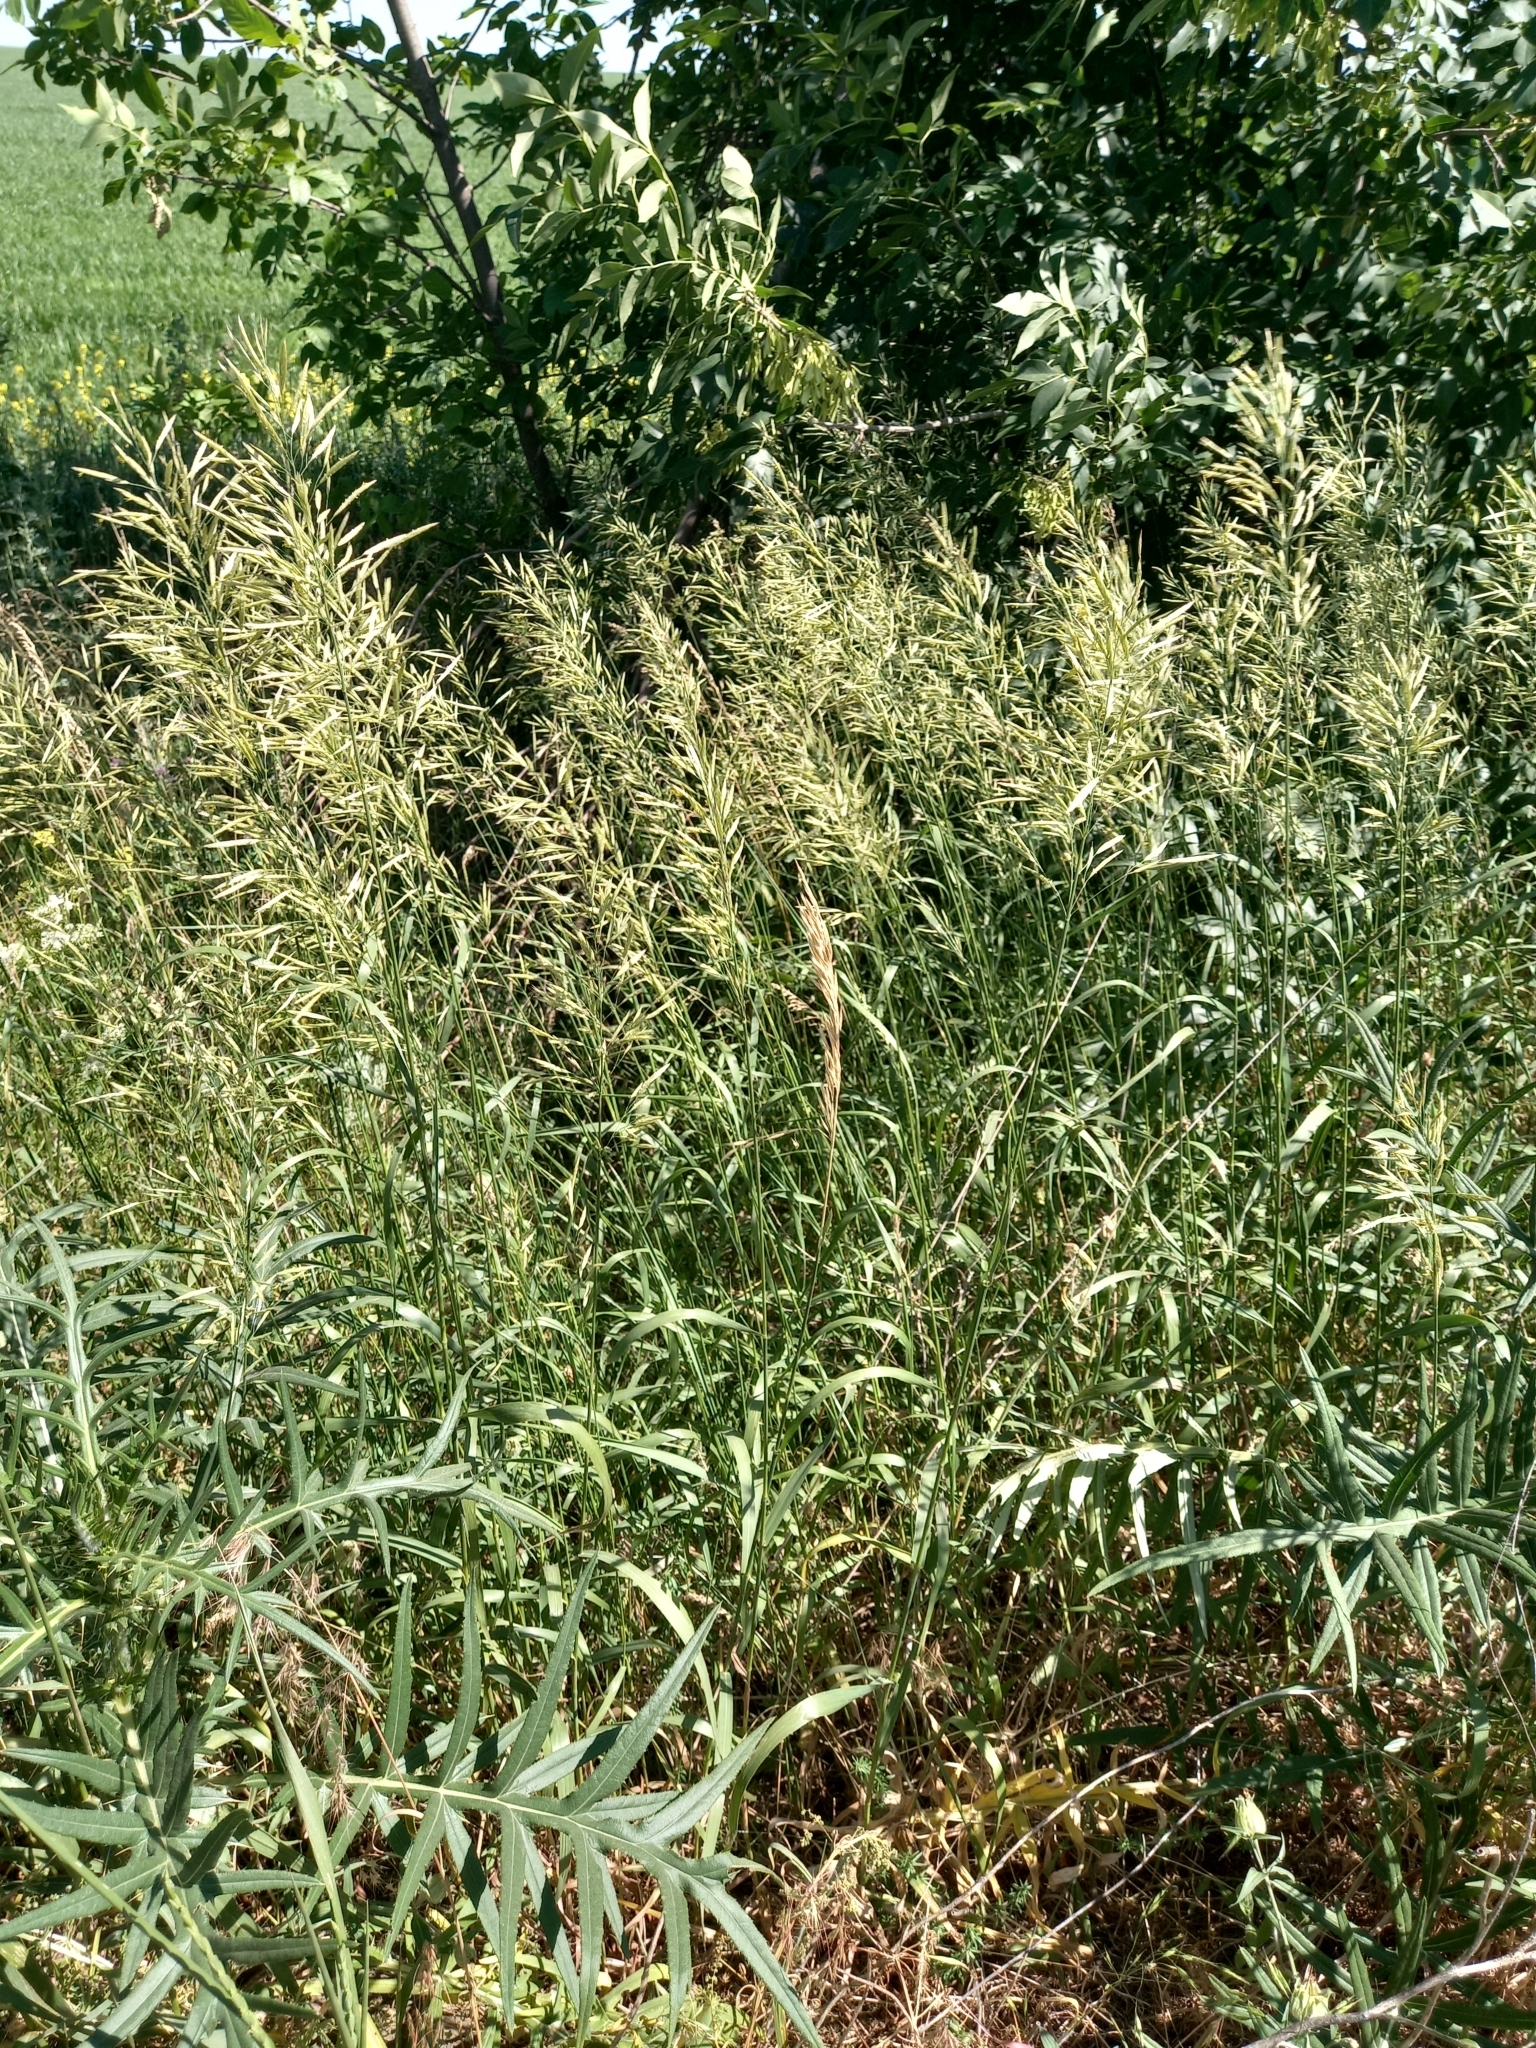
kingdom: Plantae
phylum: Tracheophyta
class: Liliopsida
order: Poales
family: Poaceae
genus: Bromus
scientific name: Bromus inermis
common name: Smooth brome
